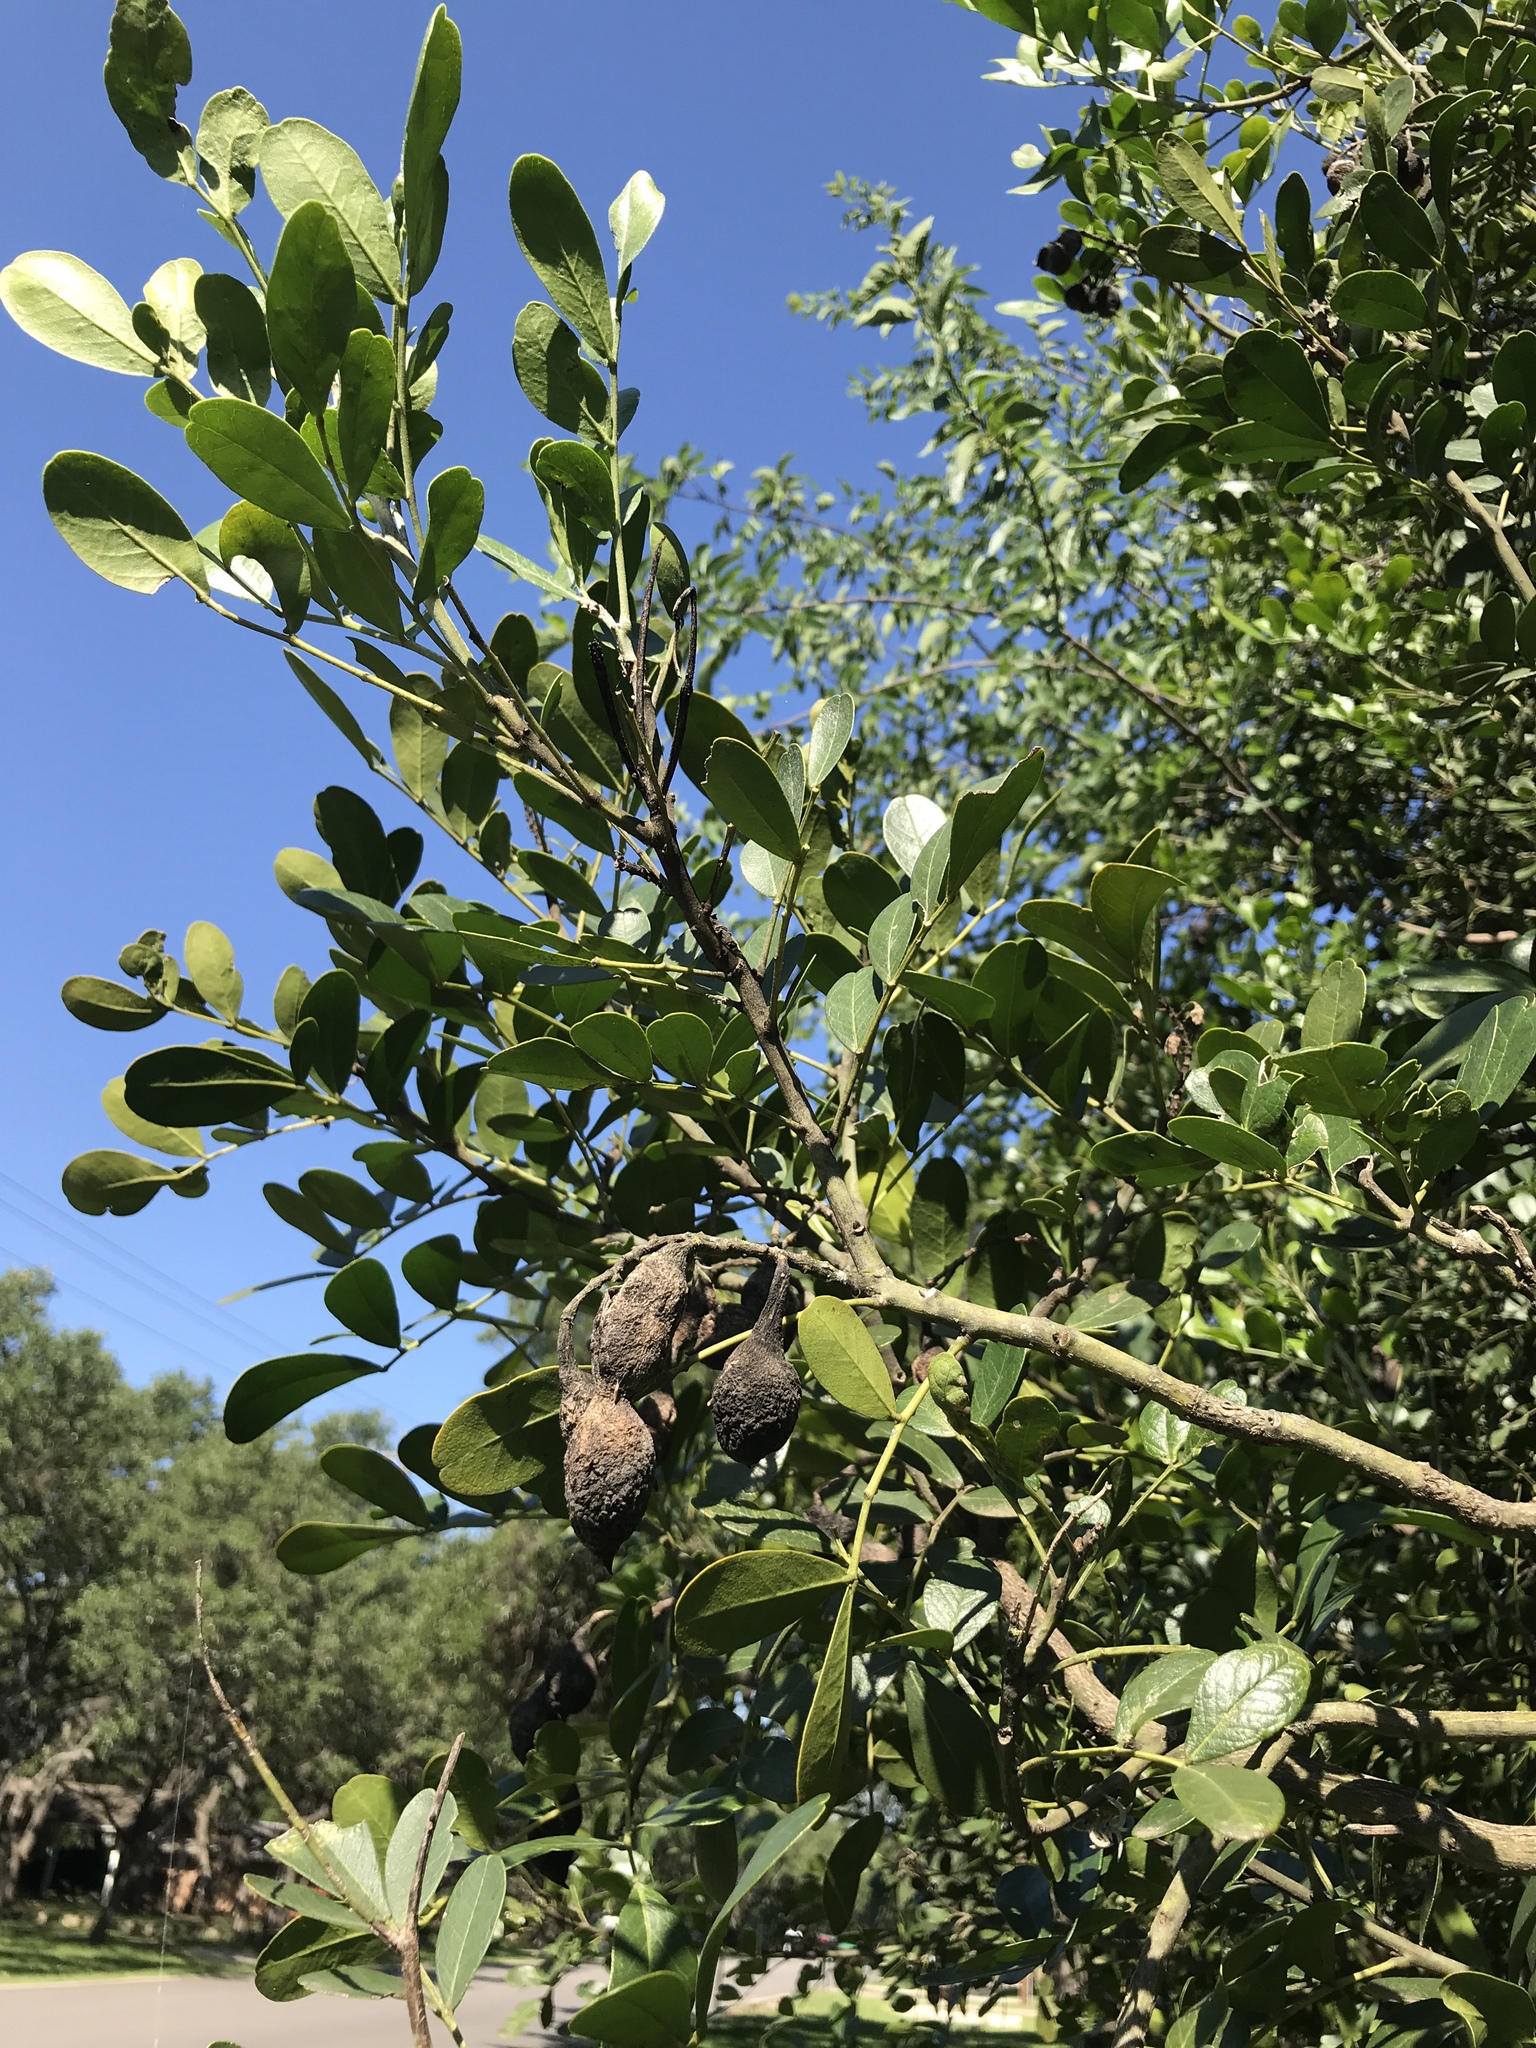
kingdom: Plantae
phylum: Tracheophyta
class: Magnoliopsida
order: Fabales
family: Fabaceae
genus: Dermatophyllum
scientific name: Dermatophyllum secundiflorum
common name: Texas-mountain-laurel
